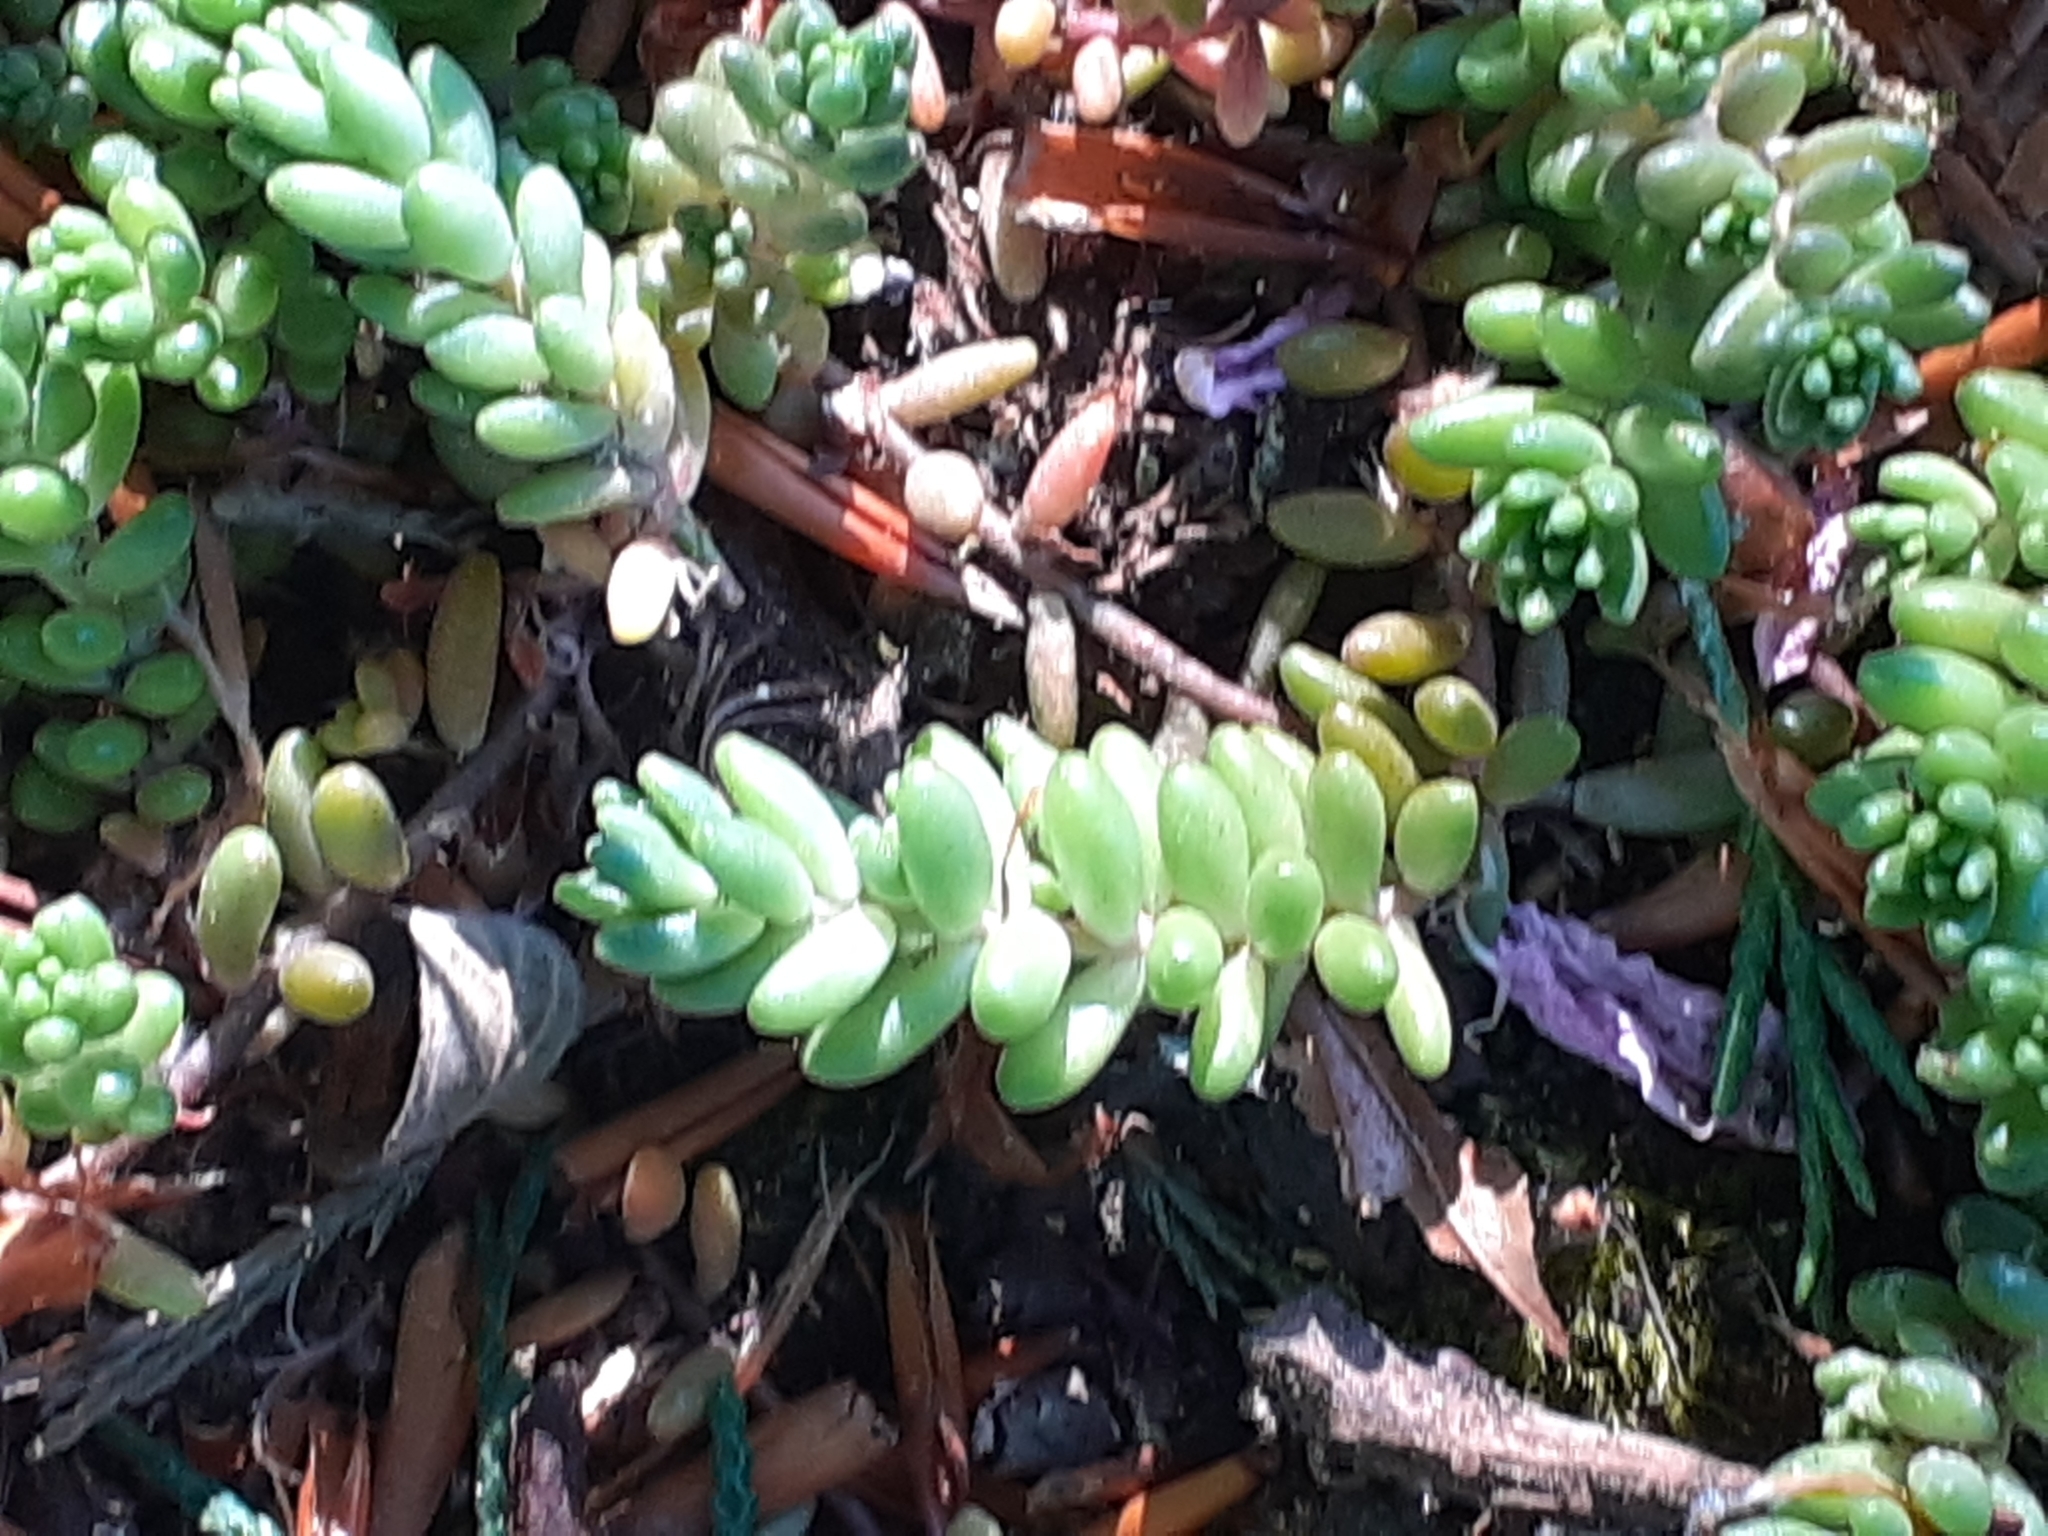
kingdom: Plantae
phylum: Tracheophyta
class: Magnoliopsida
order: Saxifragales
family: Crassulaceae
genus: Sedum
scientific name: Sedum album
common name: White stonecrop
